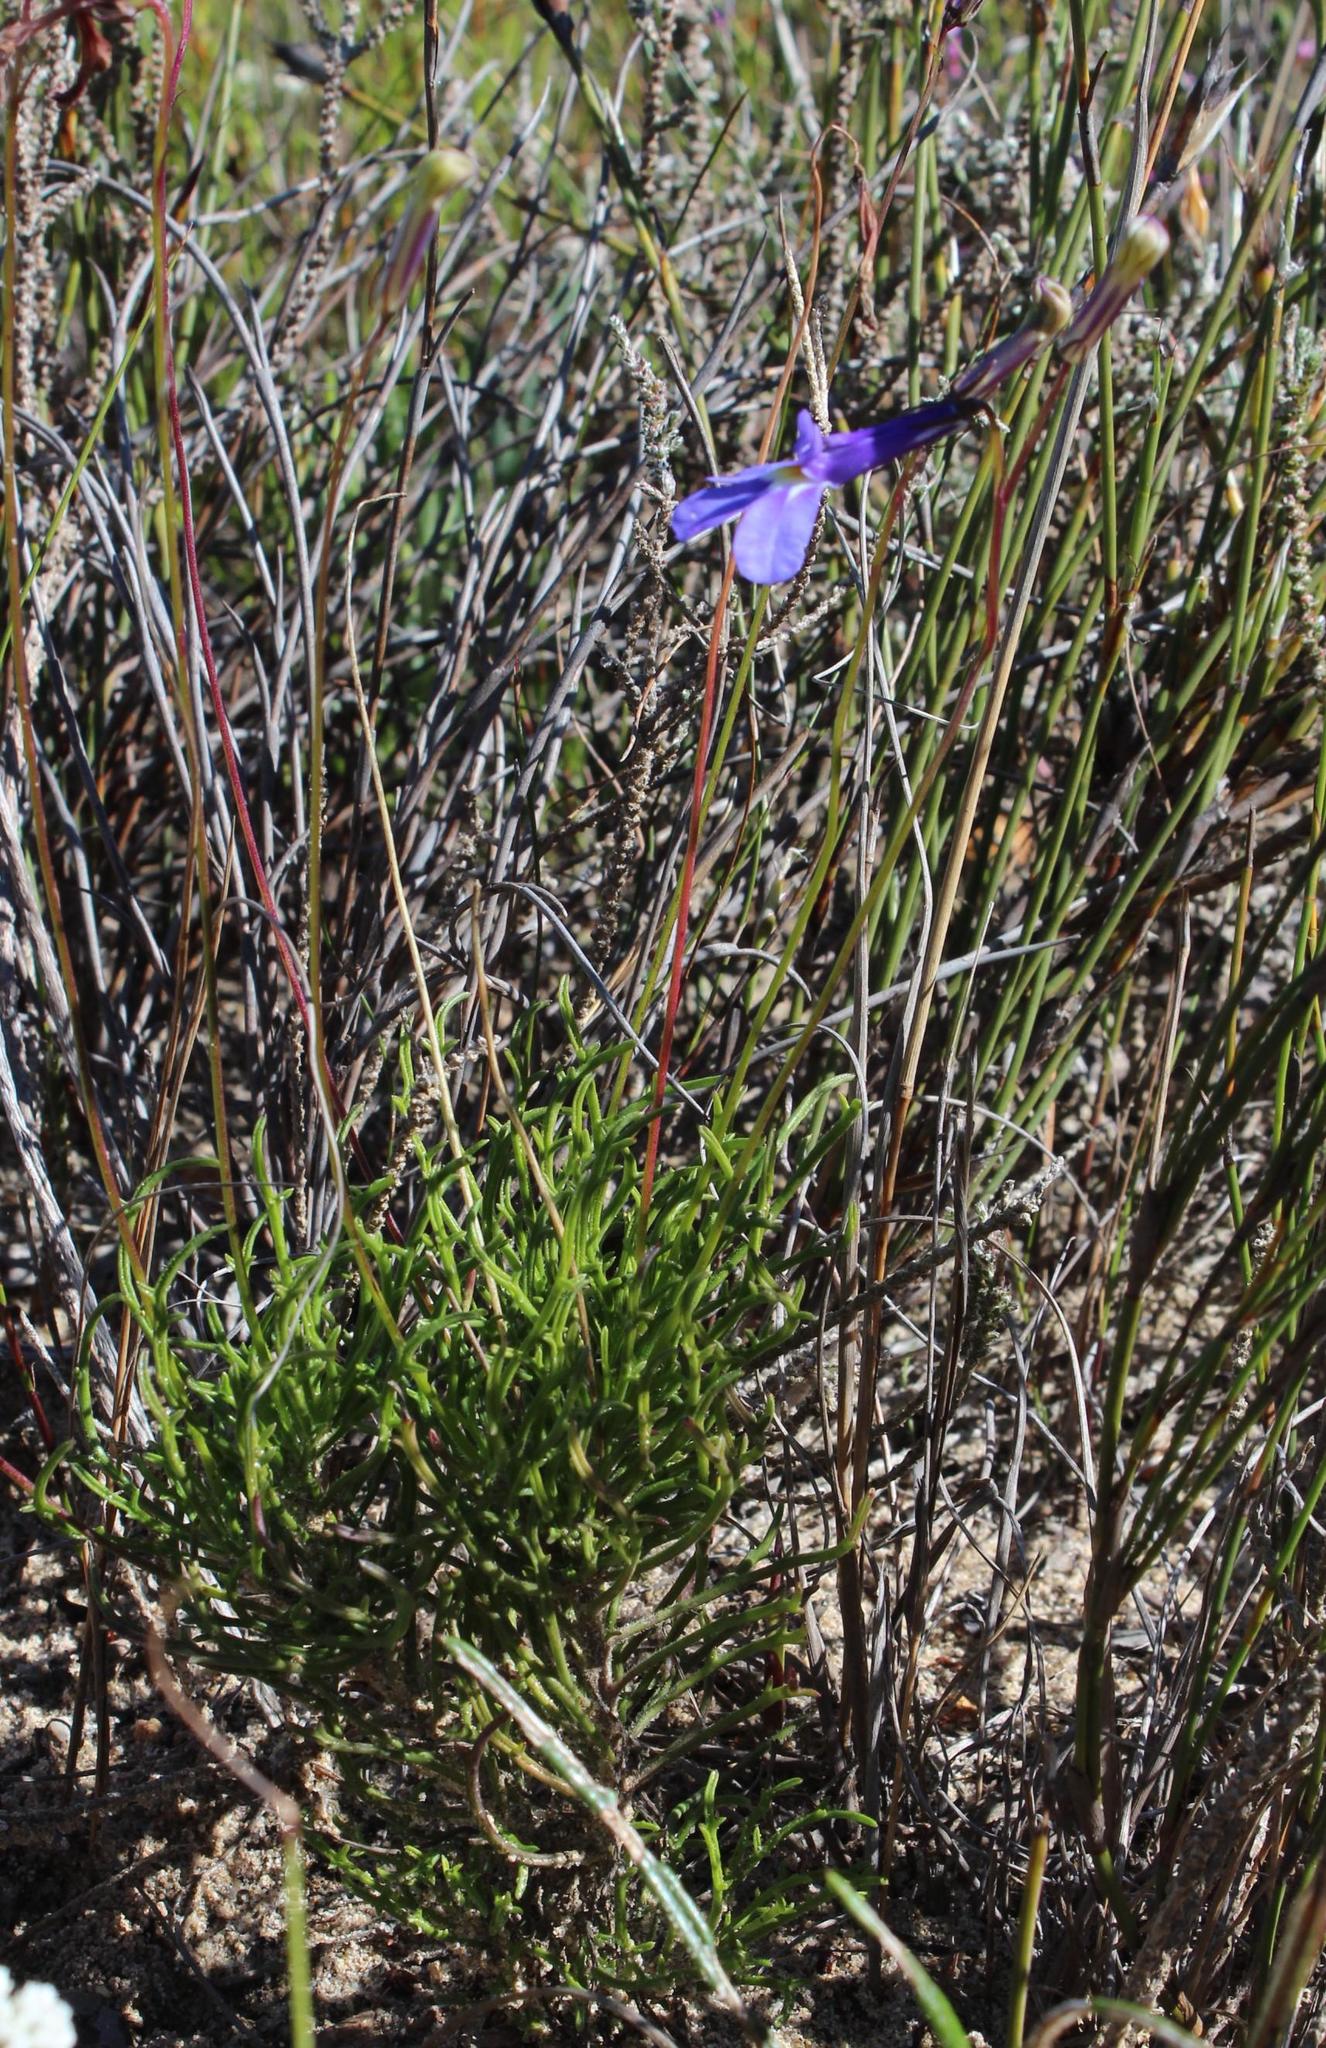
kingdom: Plantae
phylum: Tracheophyta
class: Magnoliopsida
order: Asterales
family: Campanulaceae
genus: Lobelia
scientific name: Lobelia chamaepitys
